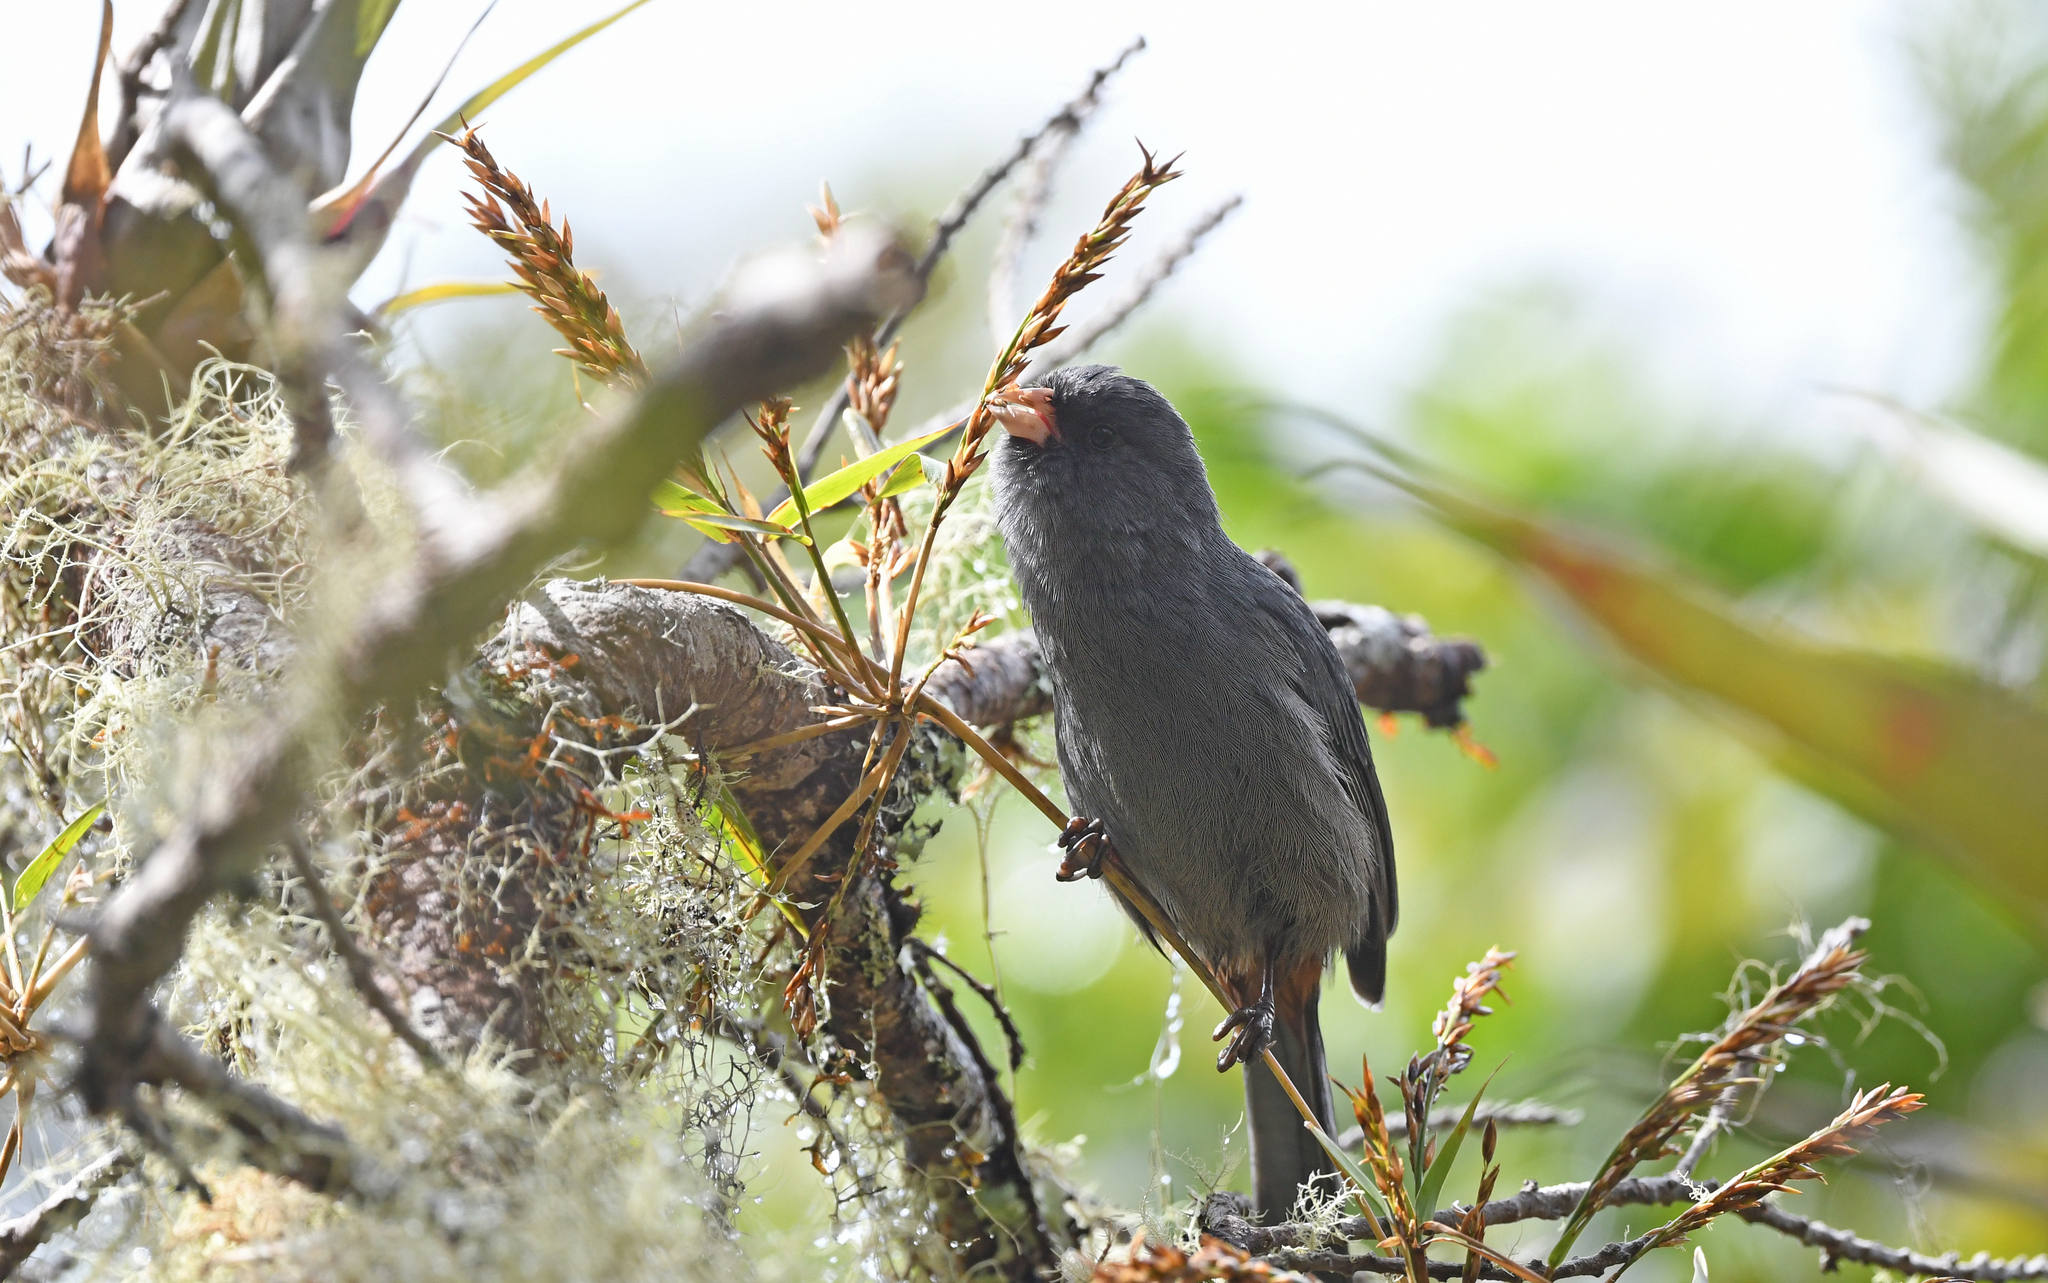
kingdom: Animalia
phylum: Chordata
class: Aves
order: Passeriformes
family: Thraupidae
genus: Catamenia
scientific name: Catamenia homochroa
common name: Paramo seedeater
